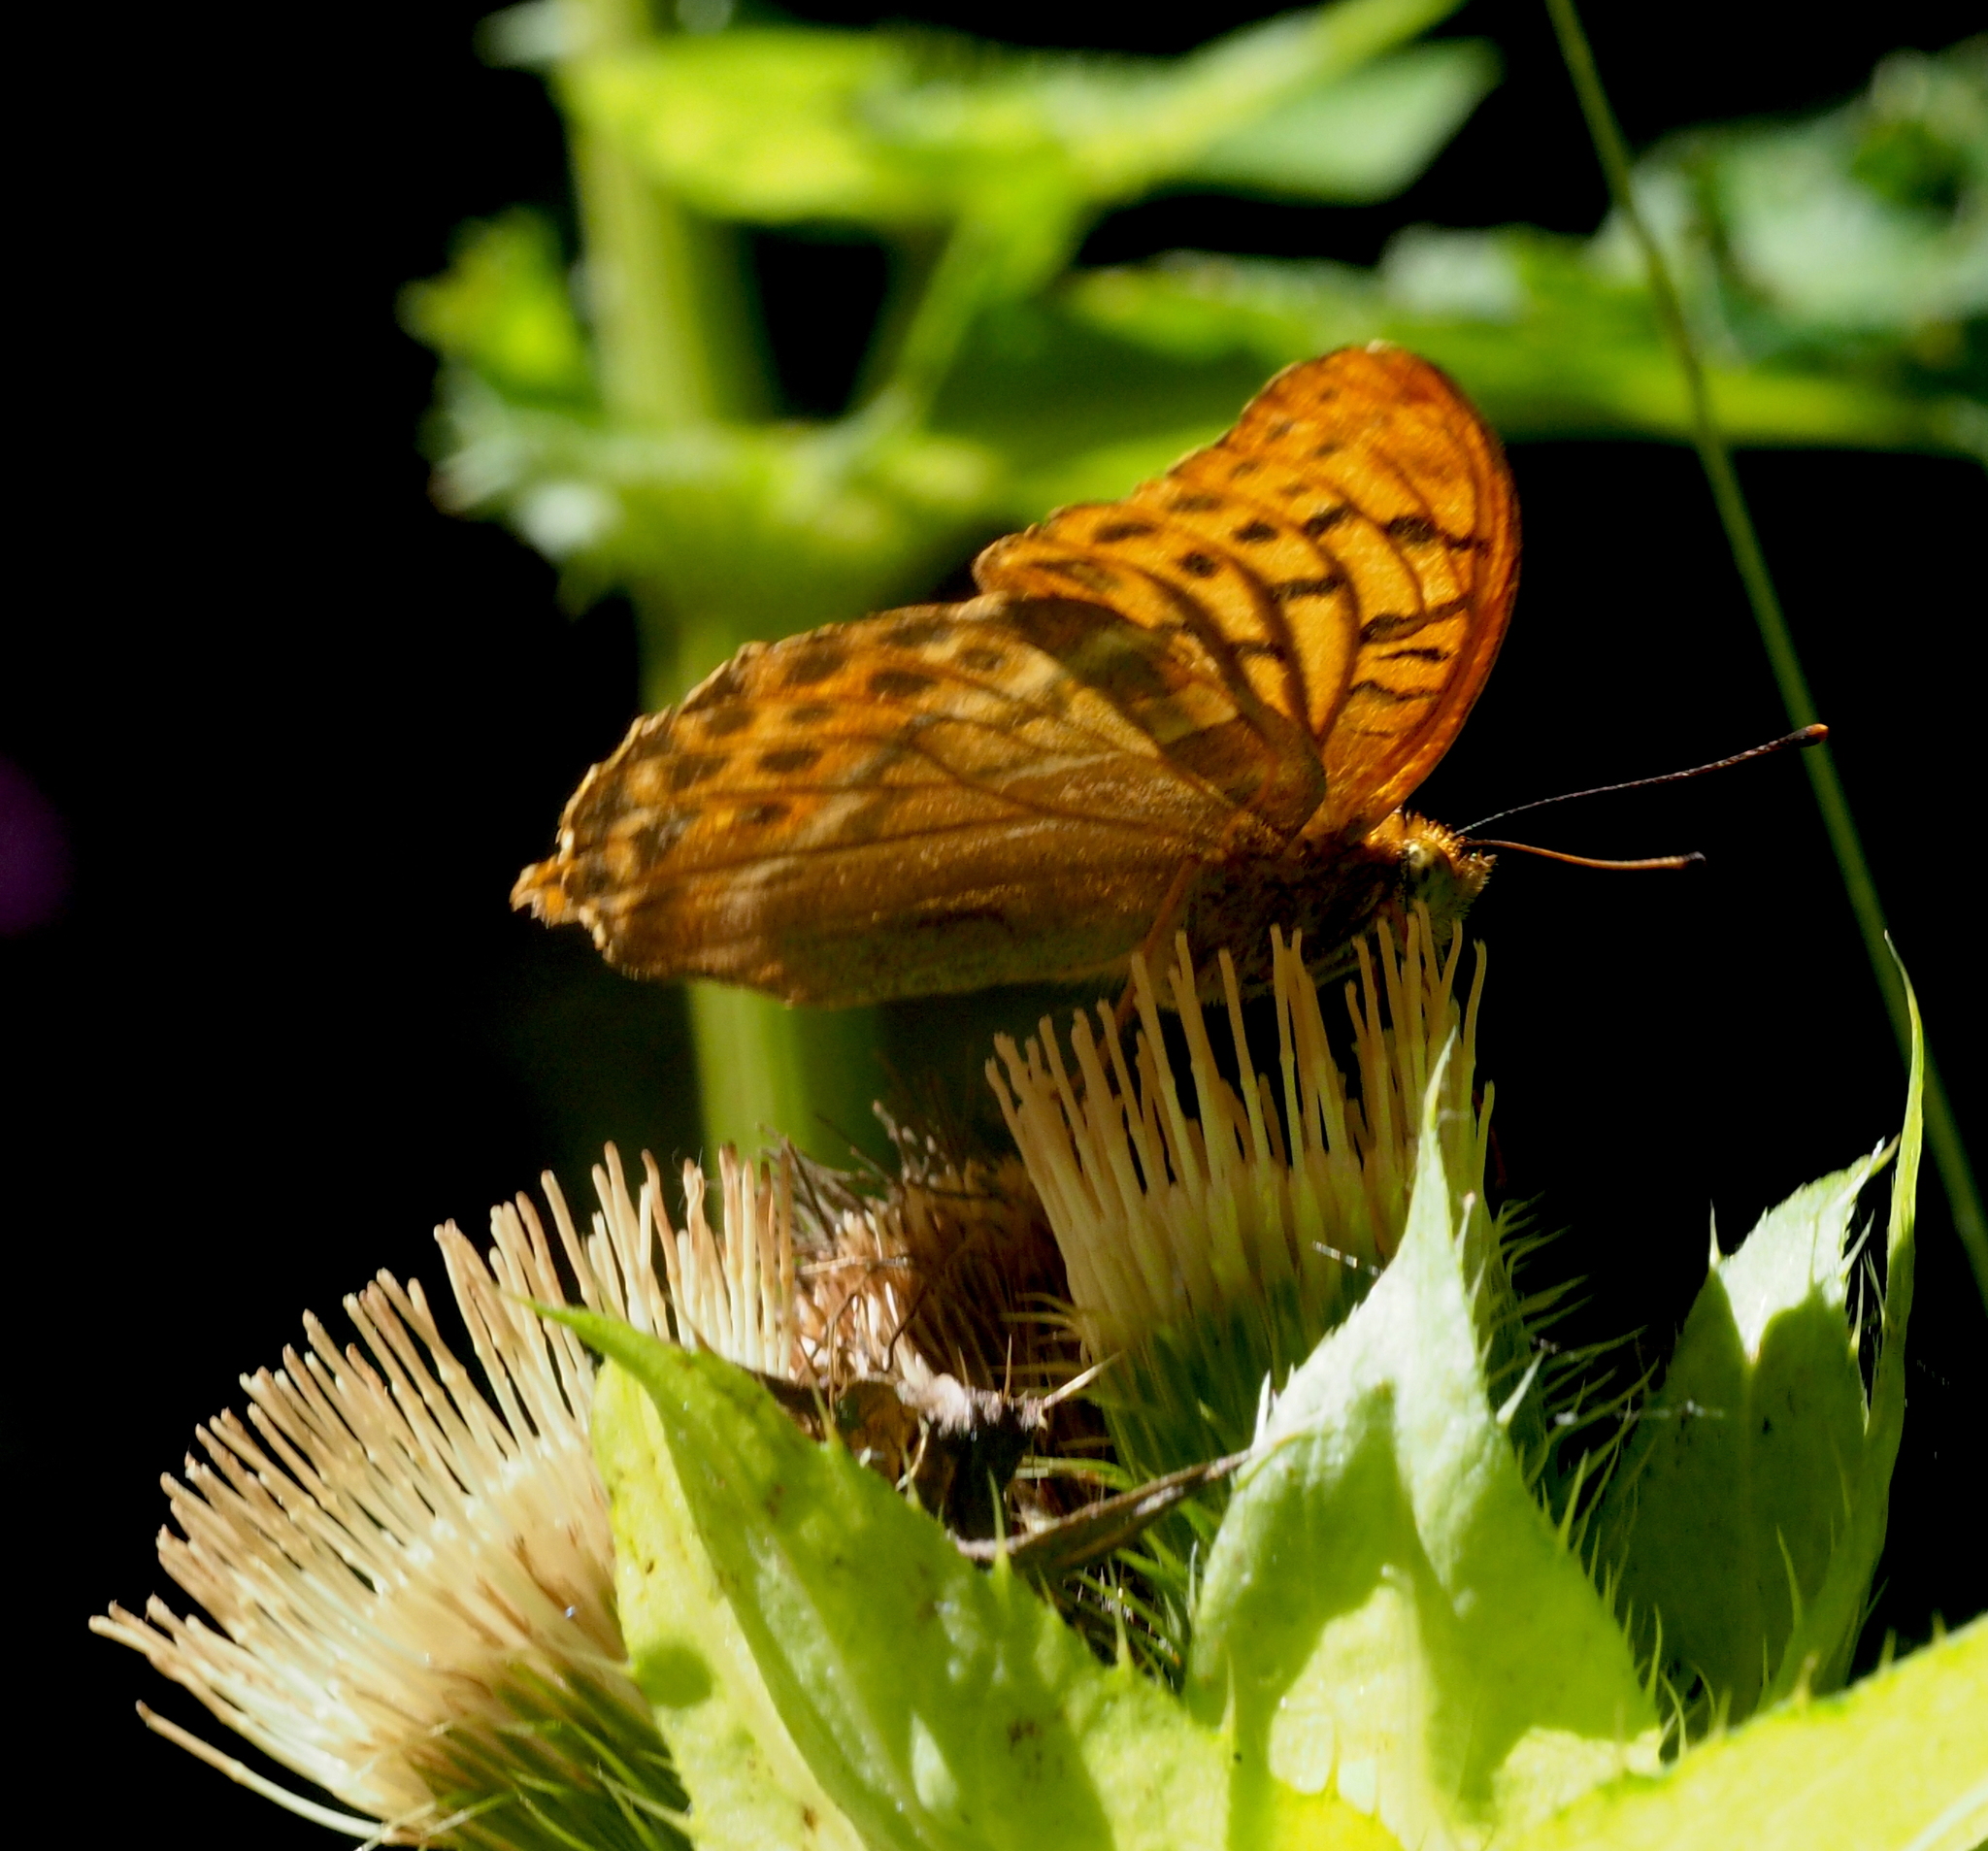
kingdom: Animalia
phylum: Arthropoda
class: Insecta
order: Lepidoptera
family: Nymphalidae
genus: Argynnis
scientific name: Argynnis paphia
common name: Silver-washed fritillary
